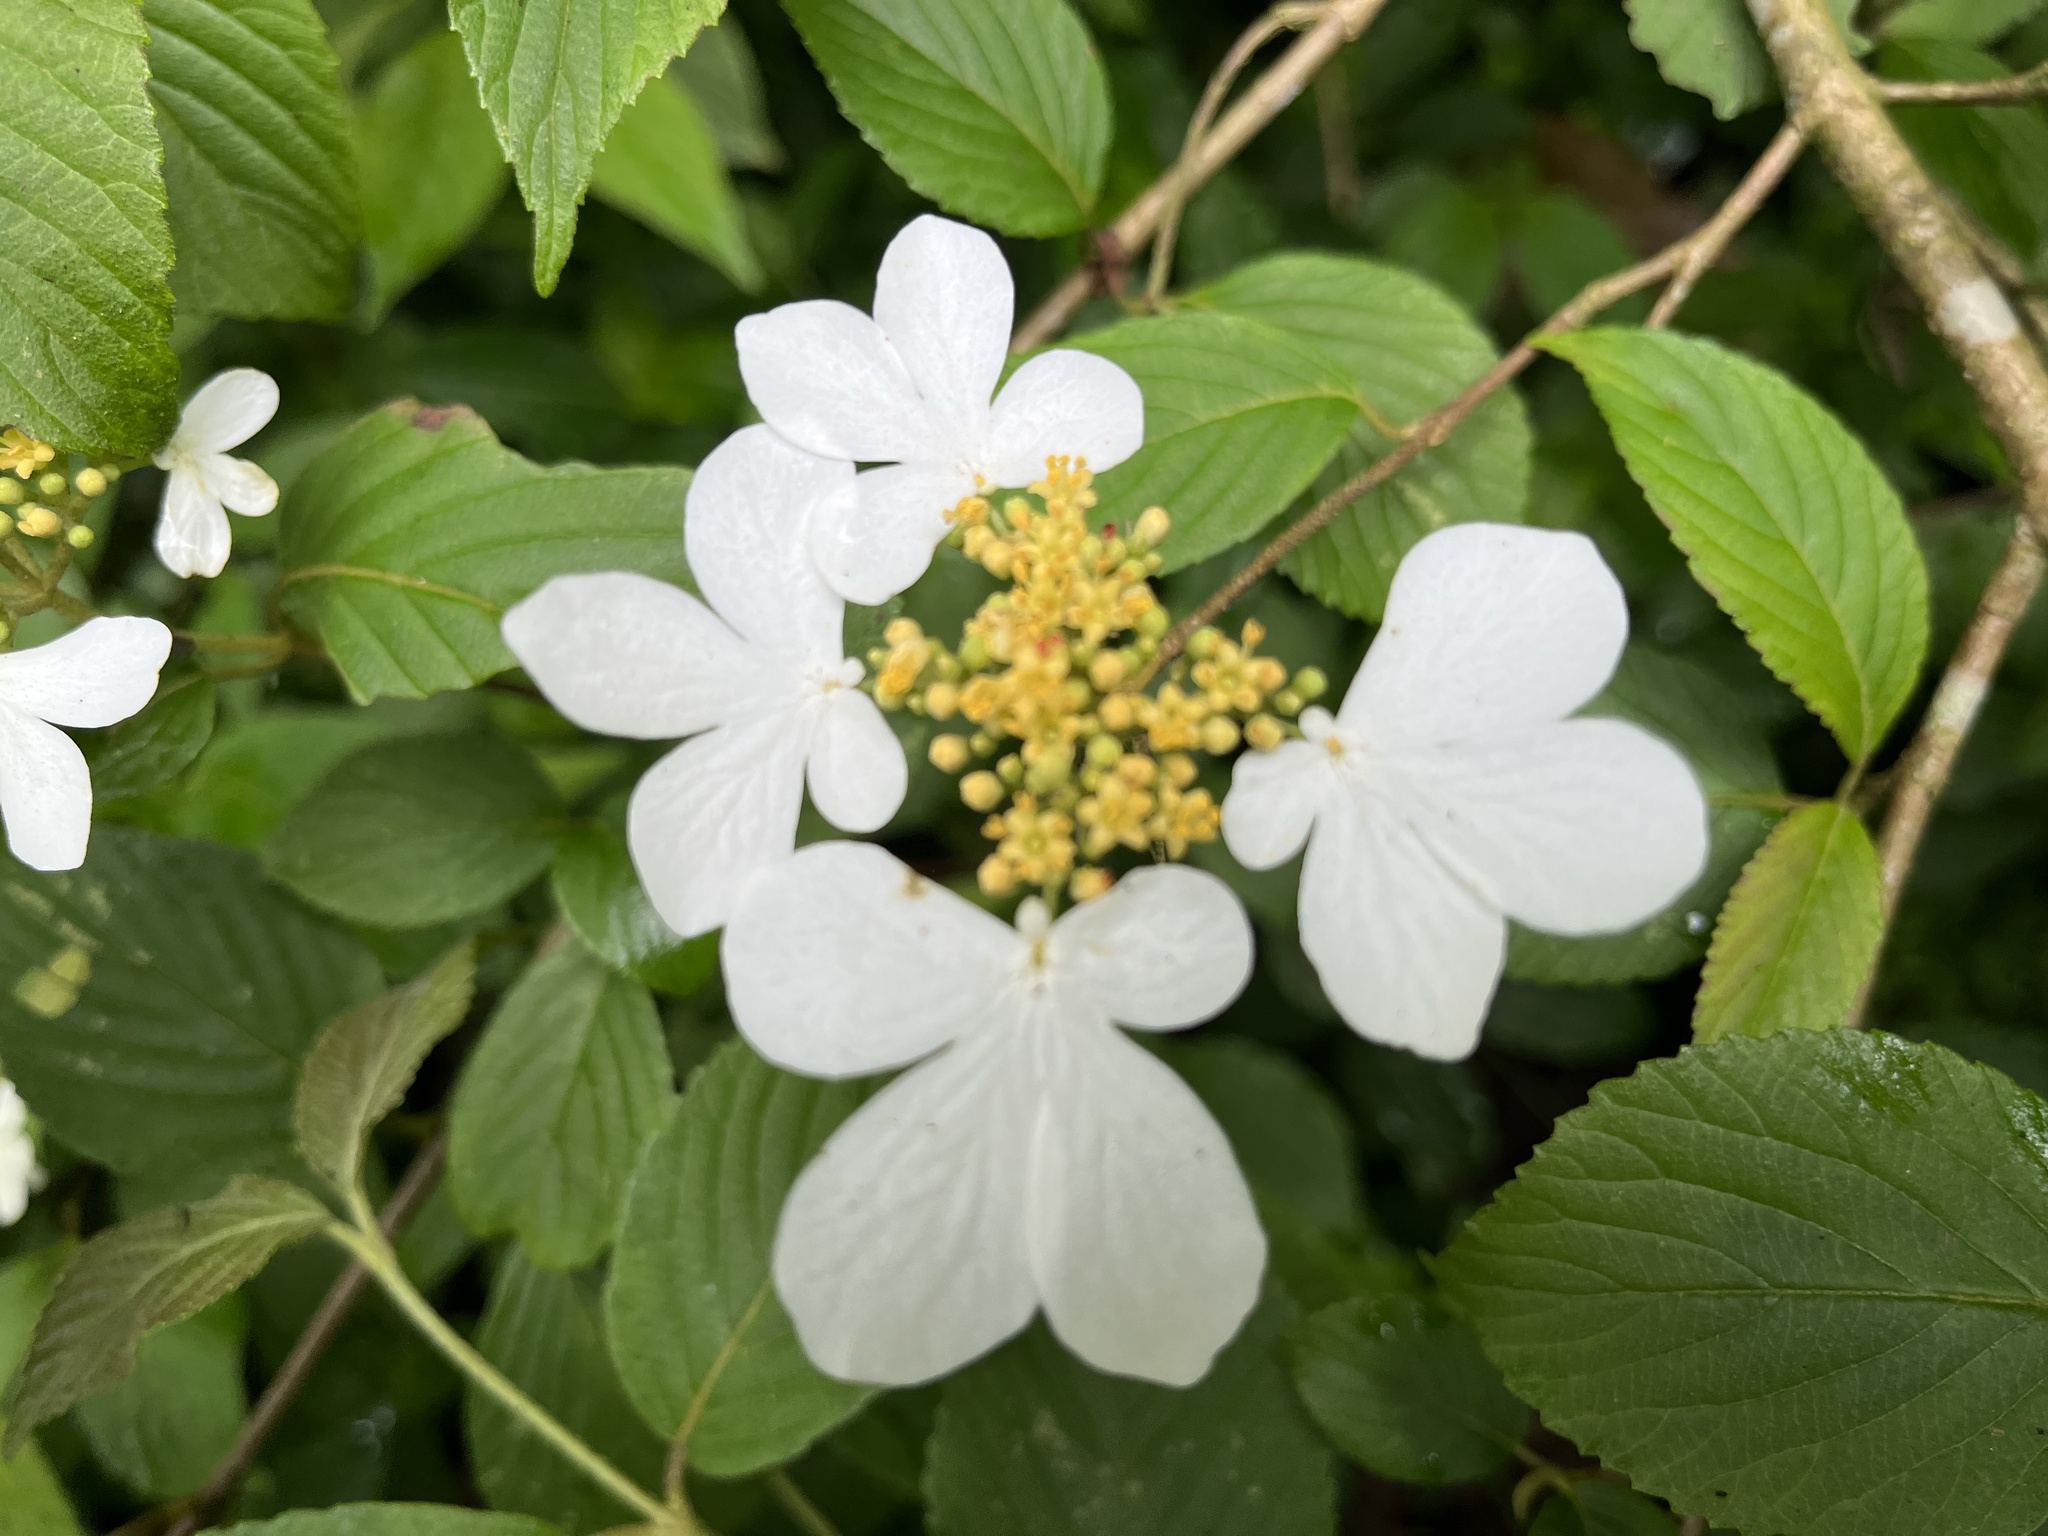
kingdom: Plantae
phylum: Tracheophyta
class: Magnoliopsida
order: Dipsacales
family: Viburnaceae
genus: Viburnum
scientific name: Viburnum plicatum
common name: Japanese snowball
